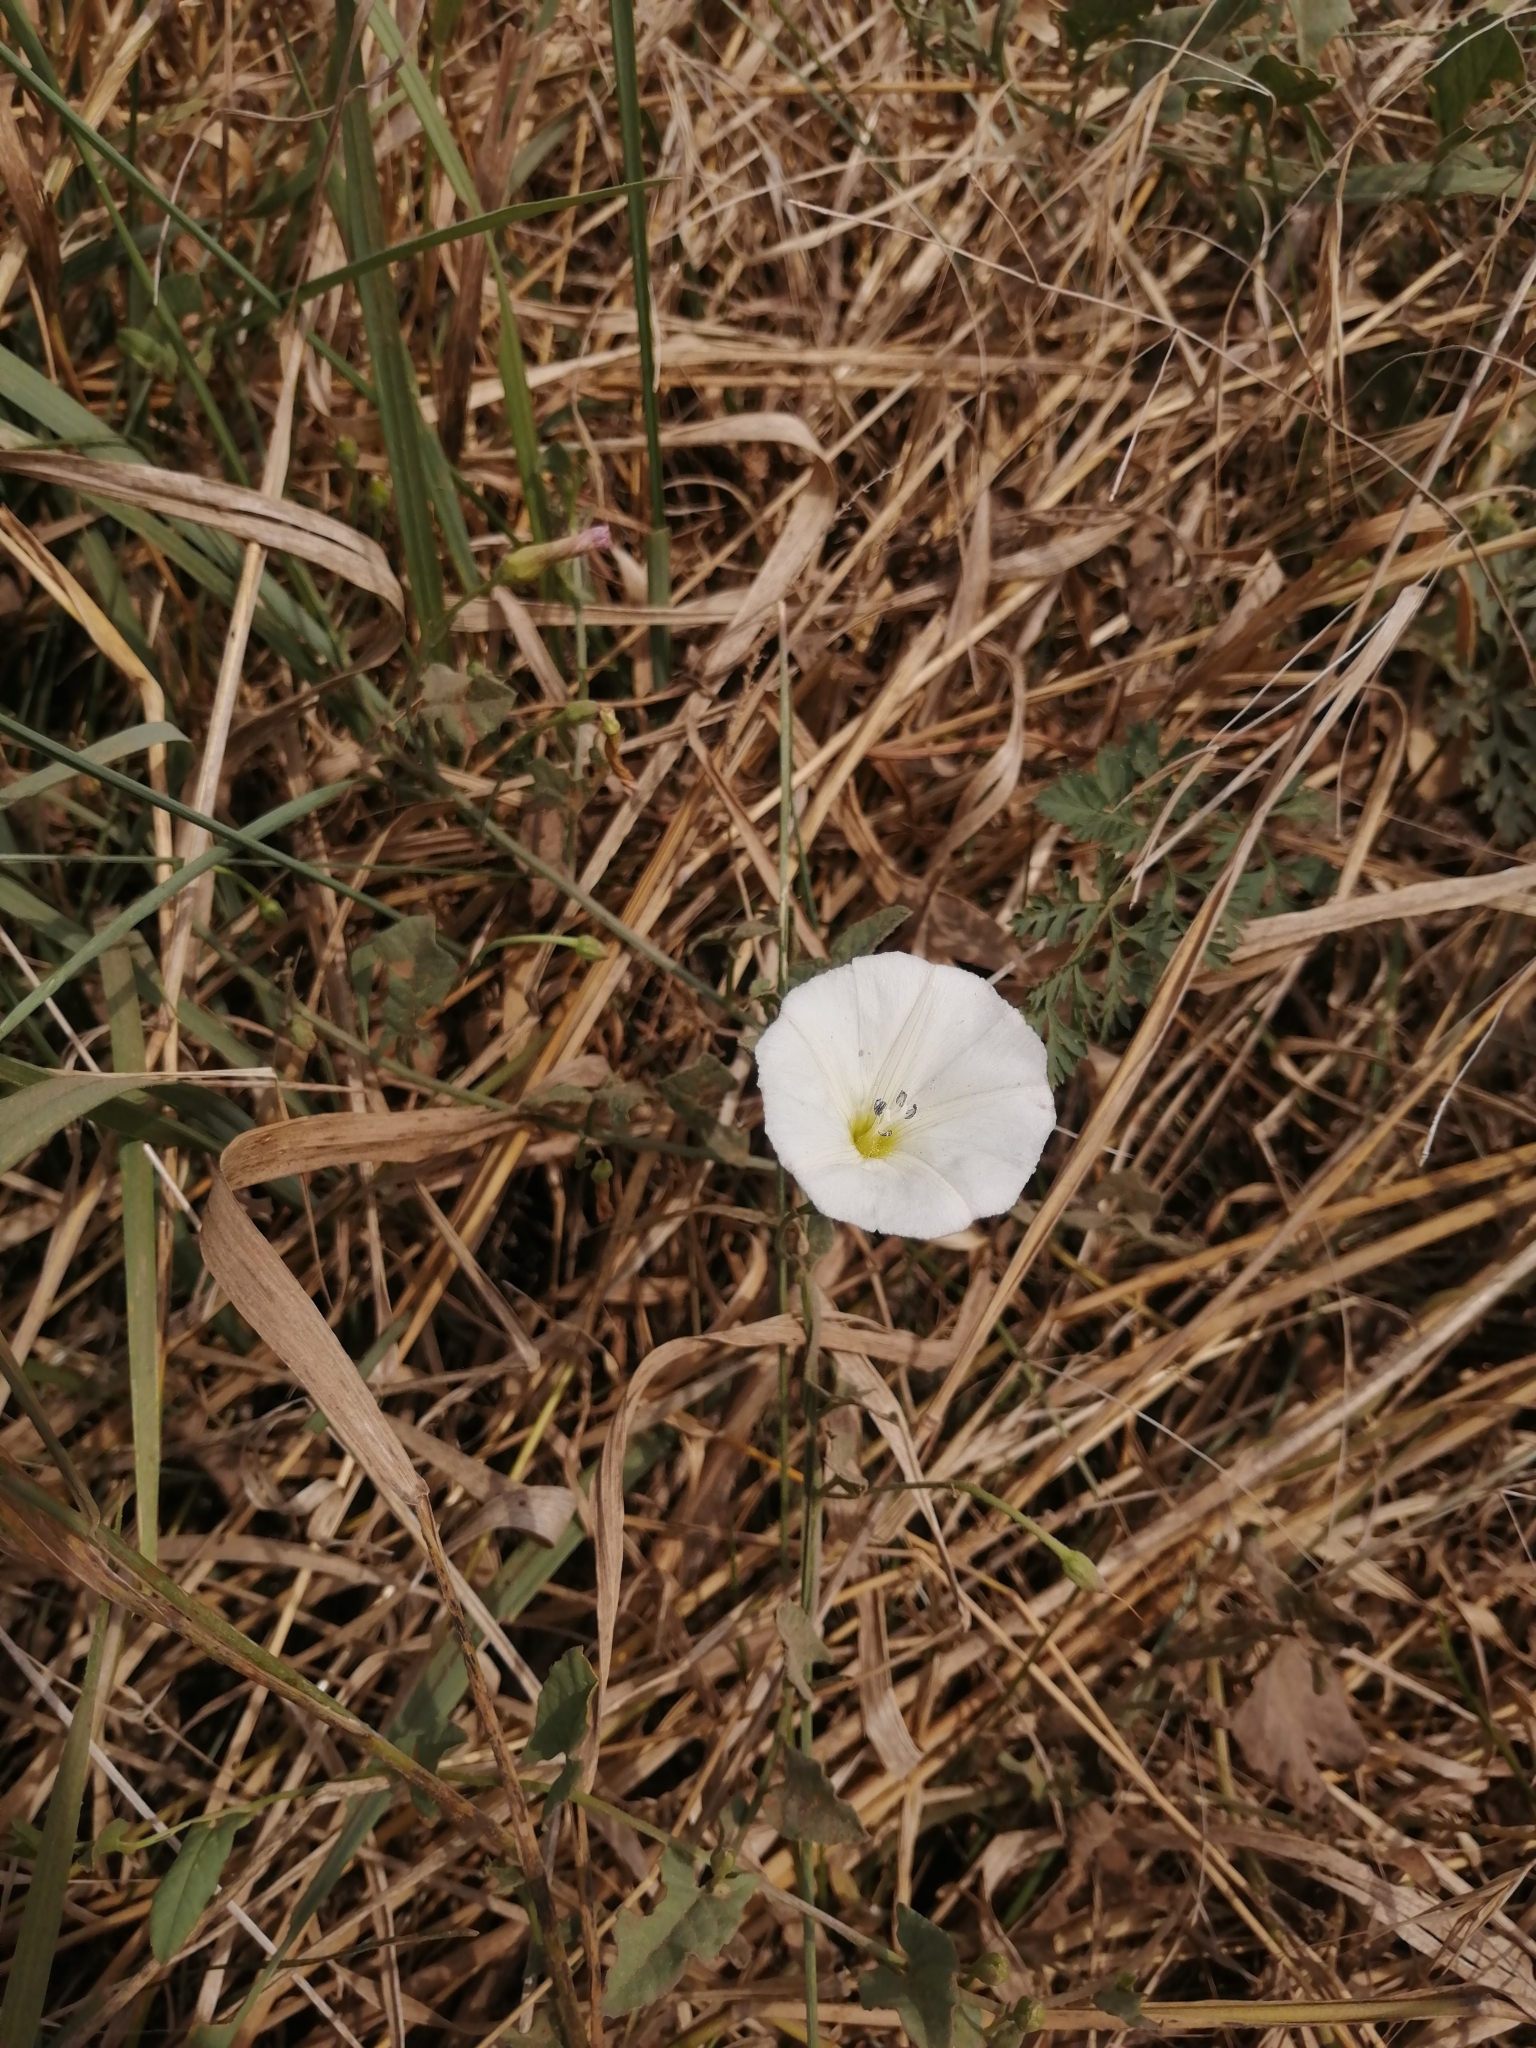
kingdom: Plantae
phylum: Tracheophyta
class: Magnoliopsida
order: Solanales
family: Convolvulaceae
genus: Convolvulus
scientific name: Convolvulus arvensis
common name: Field bindweed
